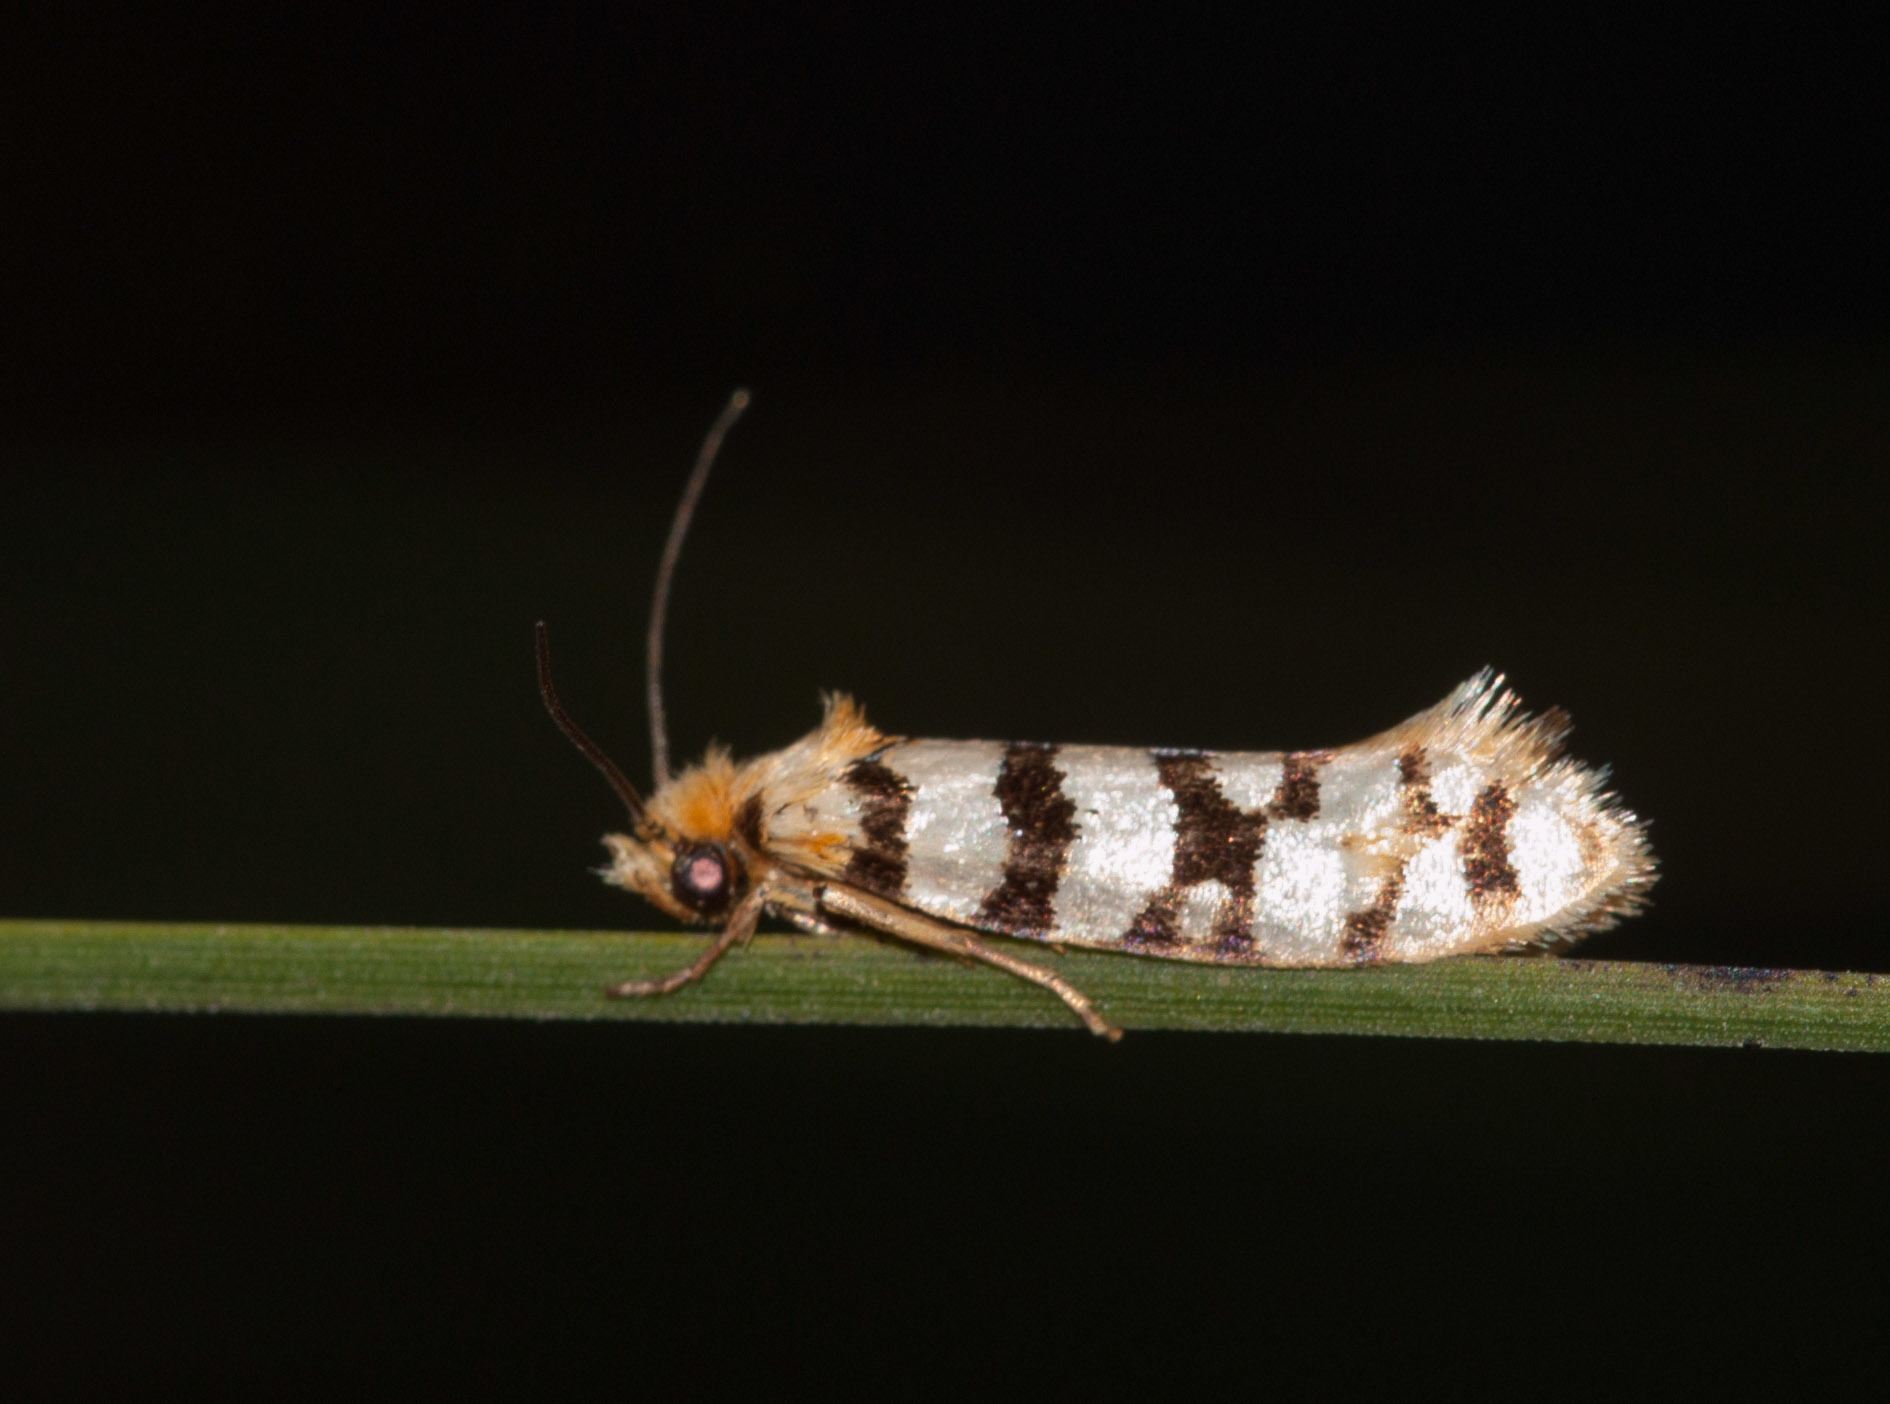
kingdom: Animalia
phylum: Arthropoda
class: Insecta
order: Lepidoptera
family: Tineidae
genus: Moerarchis
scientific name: Moerarchis australasiella
